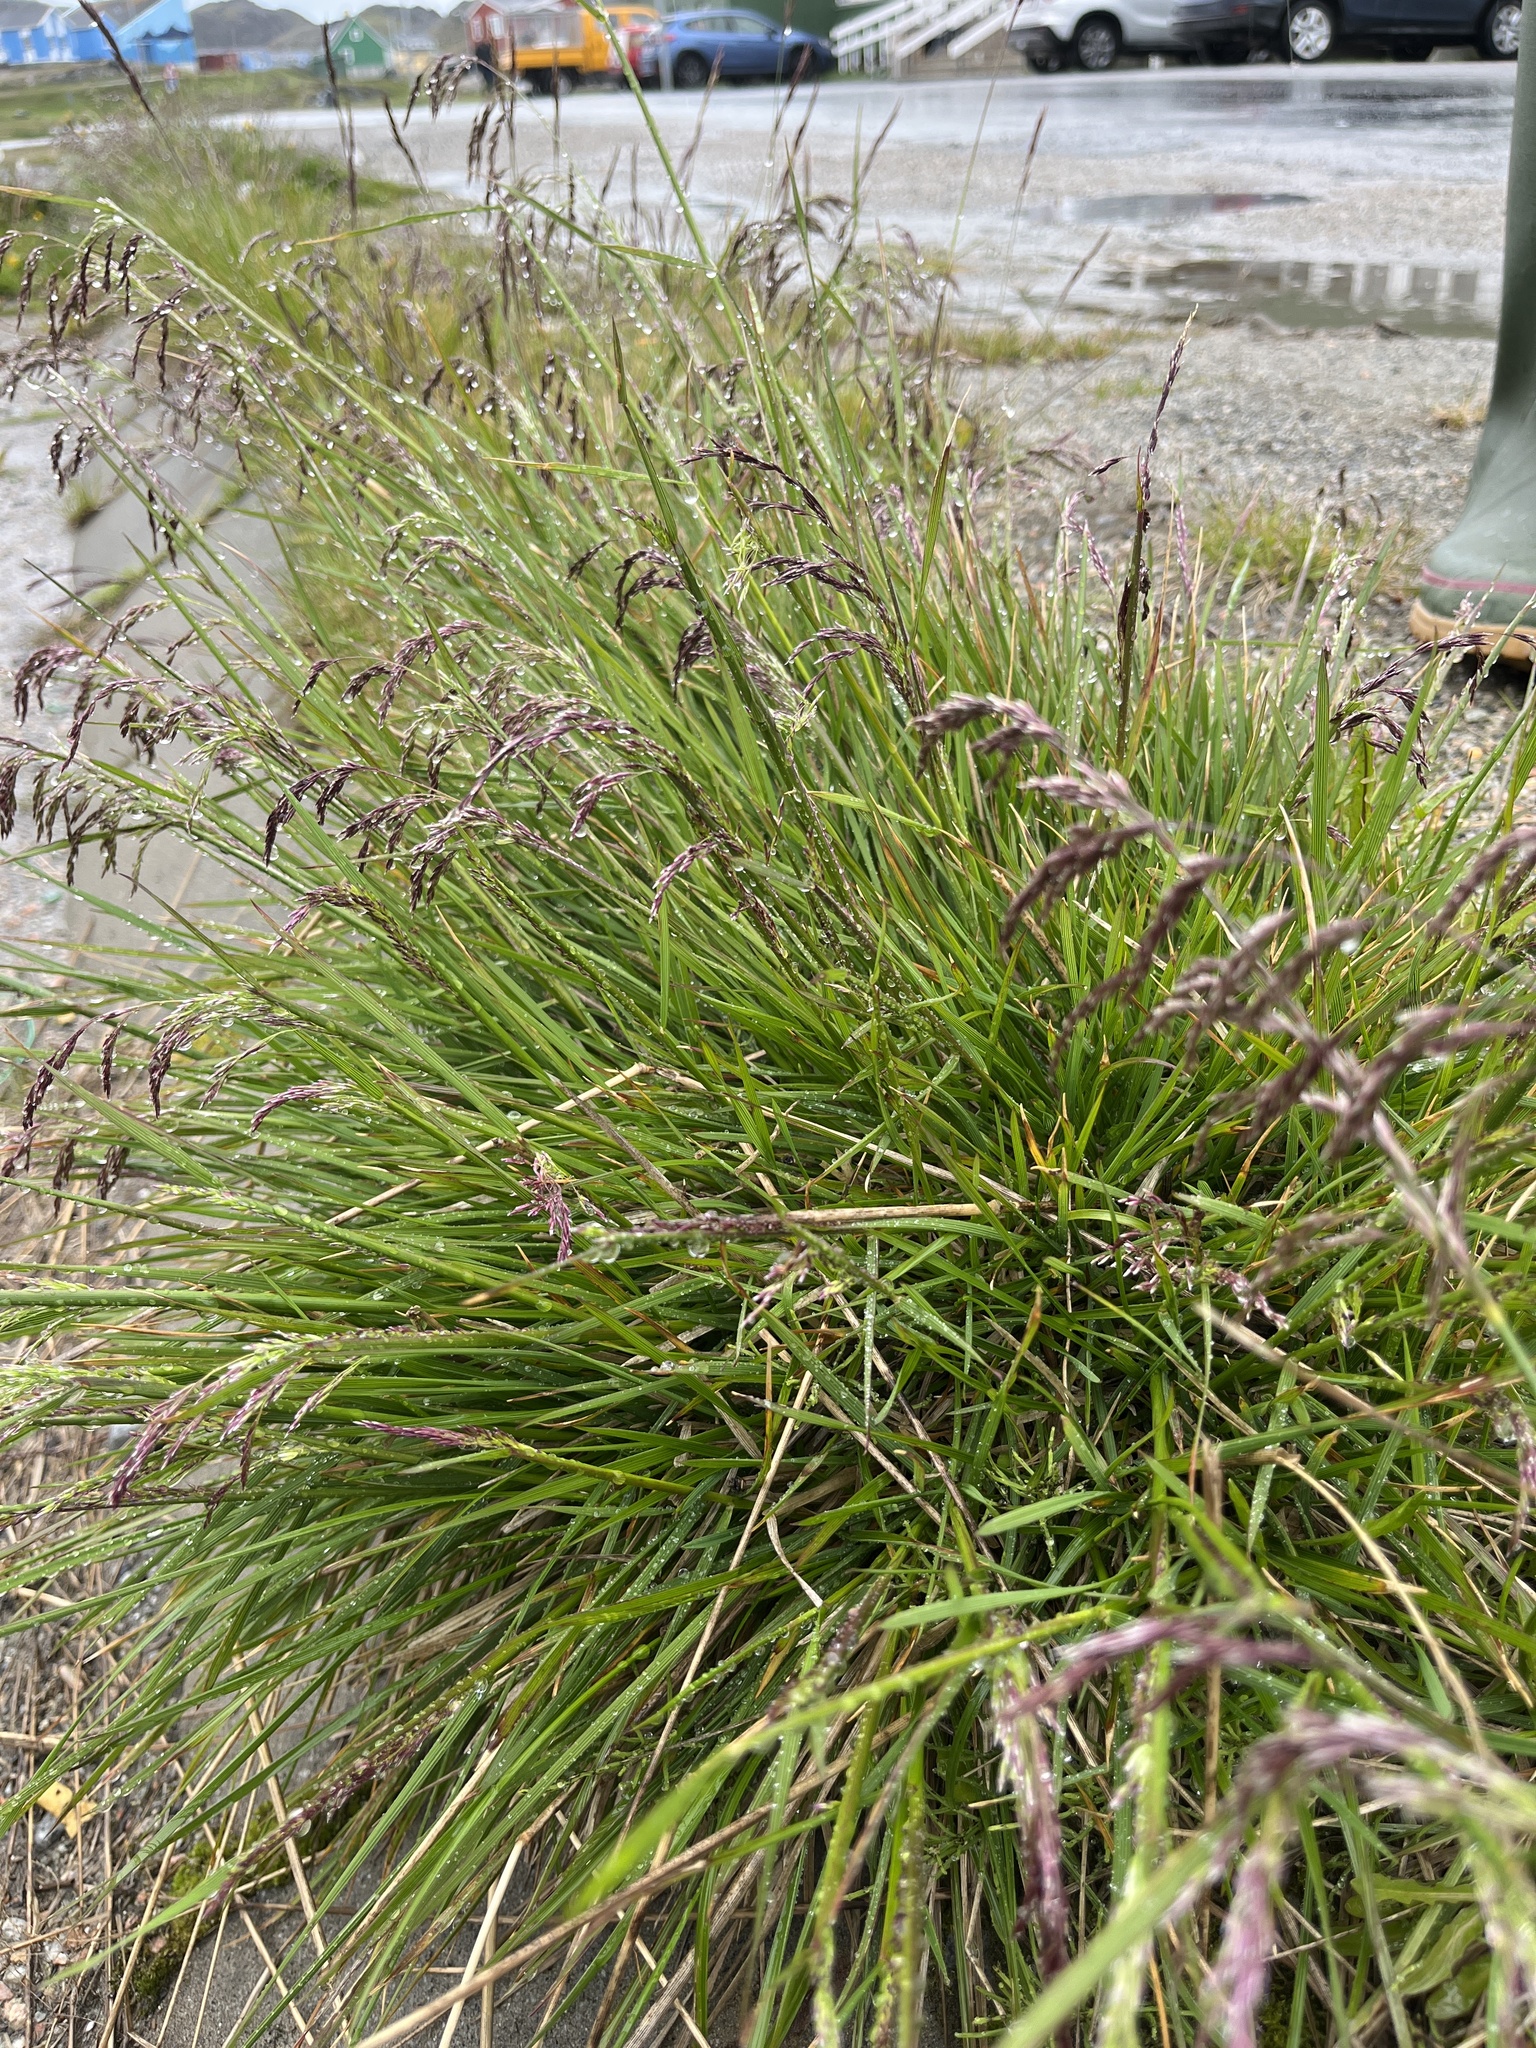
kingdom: Plantae
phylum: Tracheophyta
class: Liliopsida
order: Poales
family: Poaceae
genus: Deschampsia
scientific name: Deschampsia cespitosa
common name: Tufted hair-grass
